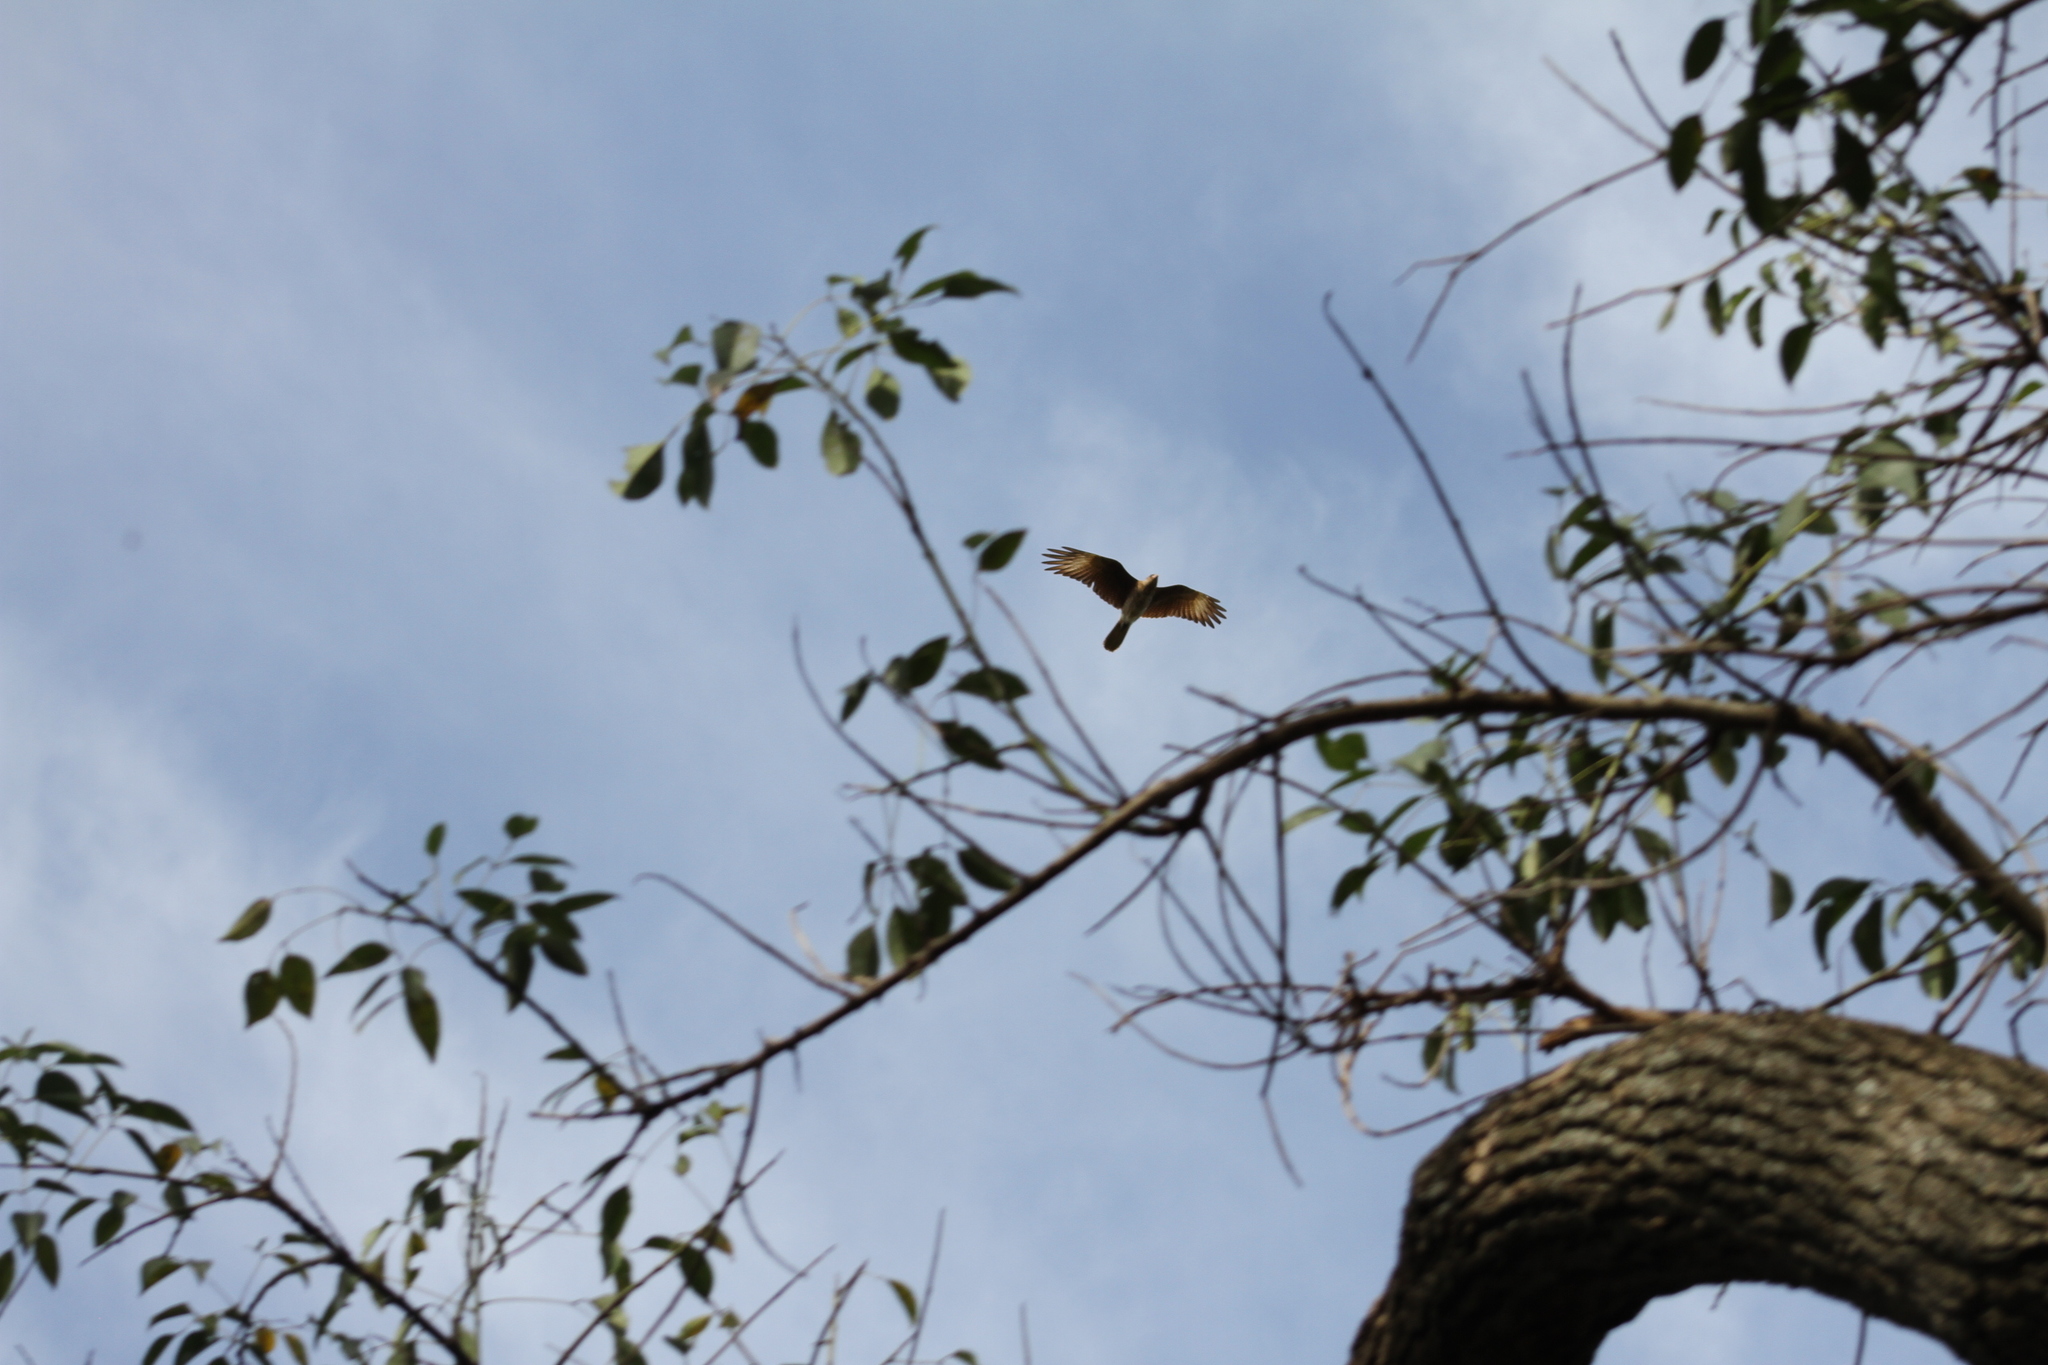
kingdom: Animalia
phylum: Chordata
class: Aves
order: Falconiformes
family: Falconidae
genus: Daptrius
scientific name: Daptrius
